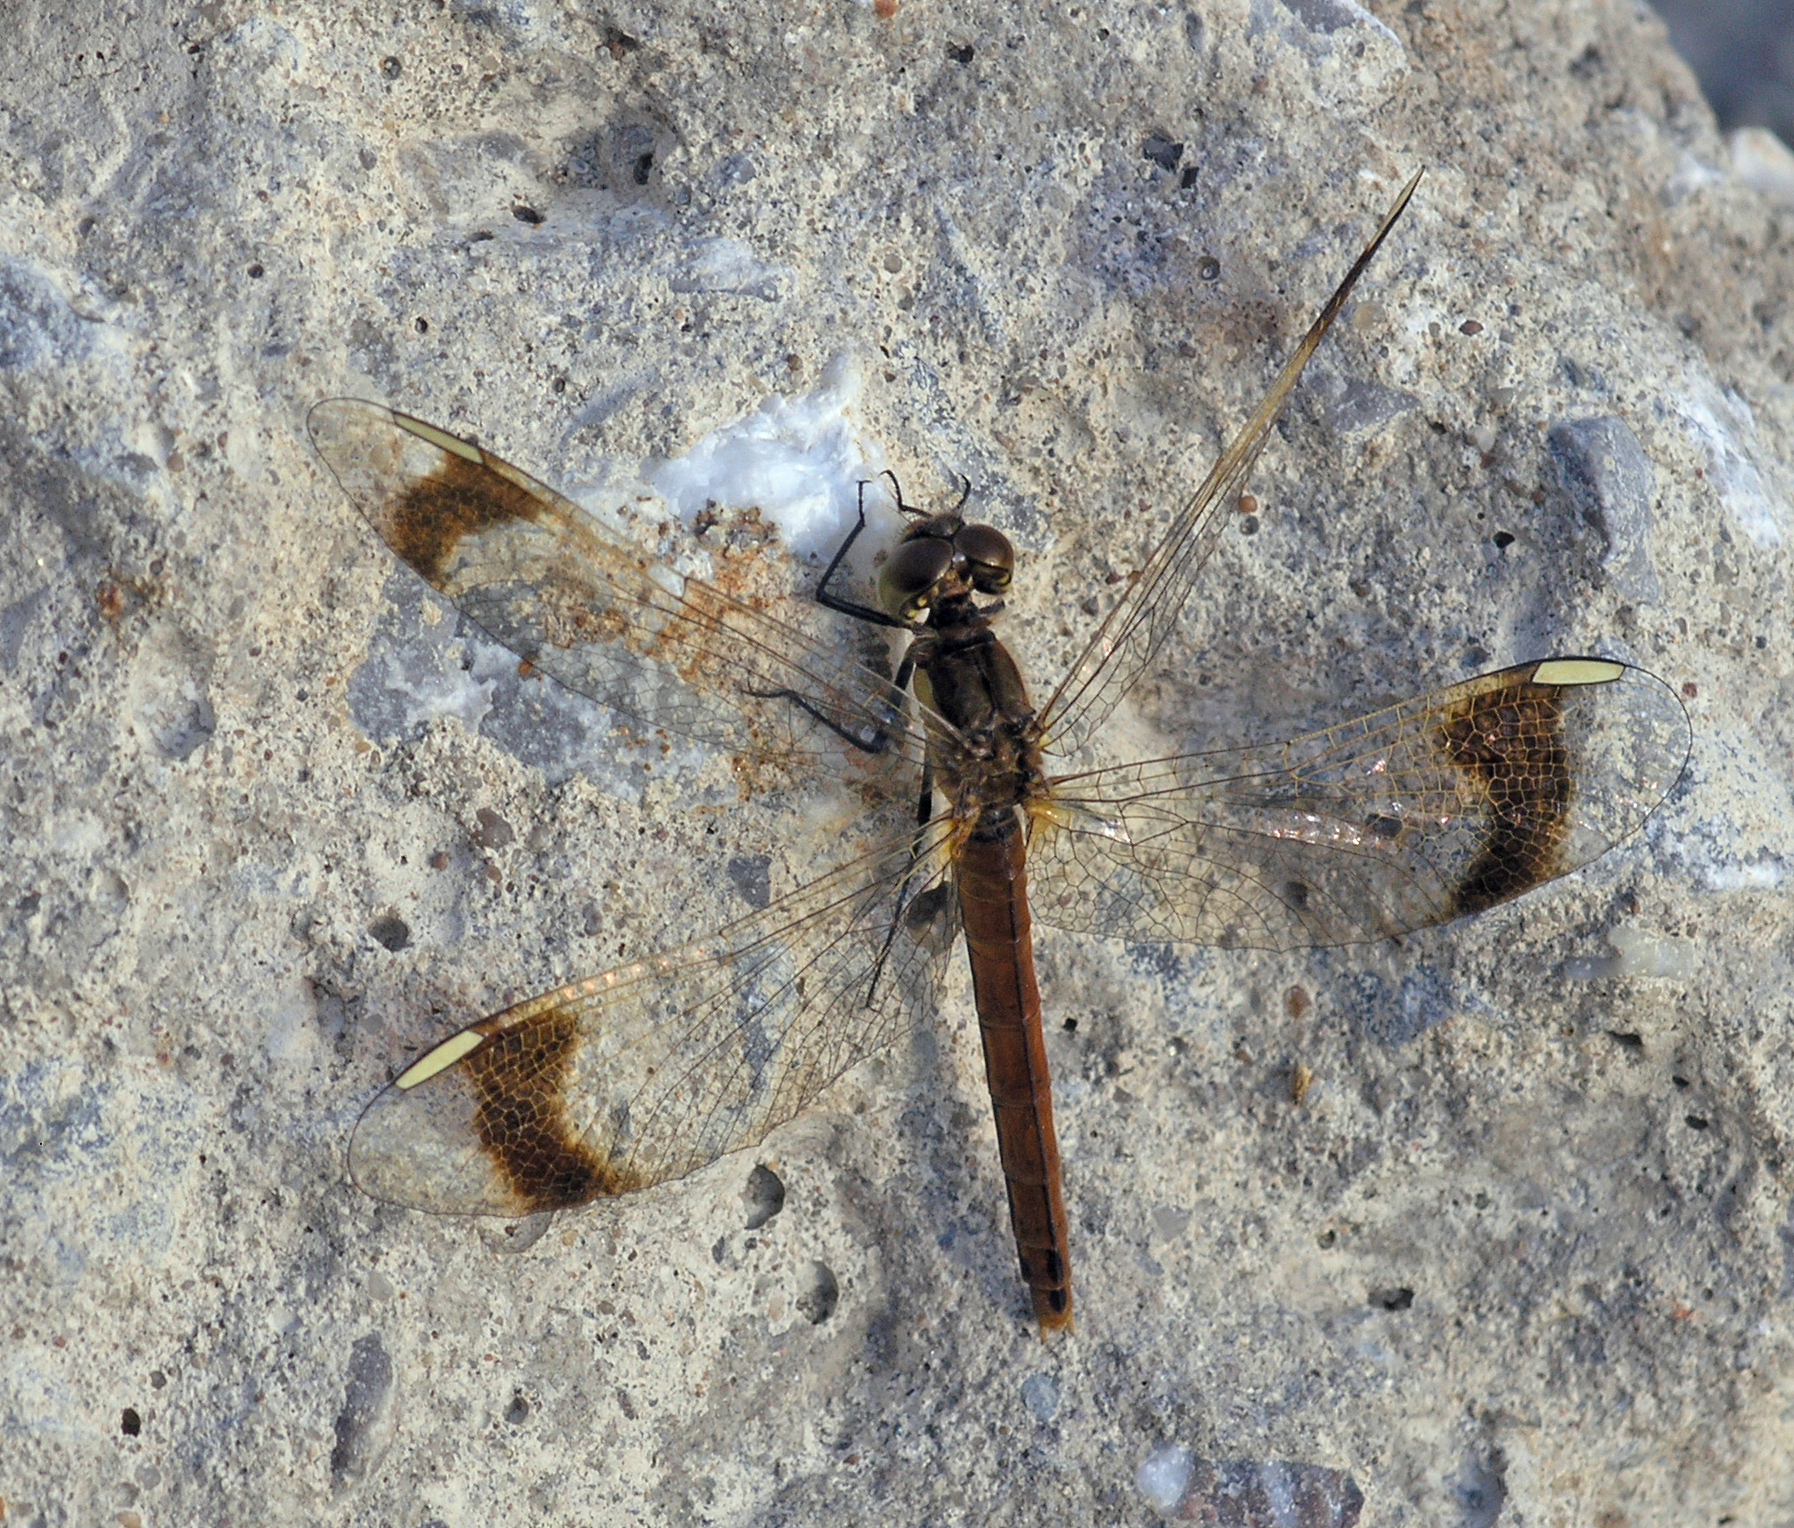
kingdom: Animalia
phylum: Arthropoda
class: Insecta
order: Odonata
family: Libellulidae
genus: Sympetrum
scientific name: Sympetrum pedemontanum
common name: Banded darter
